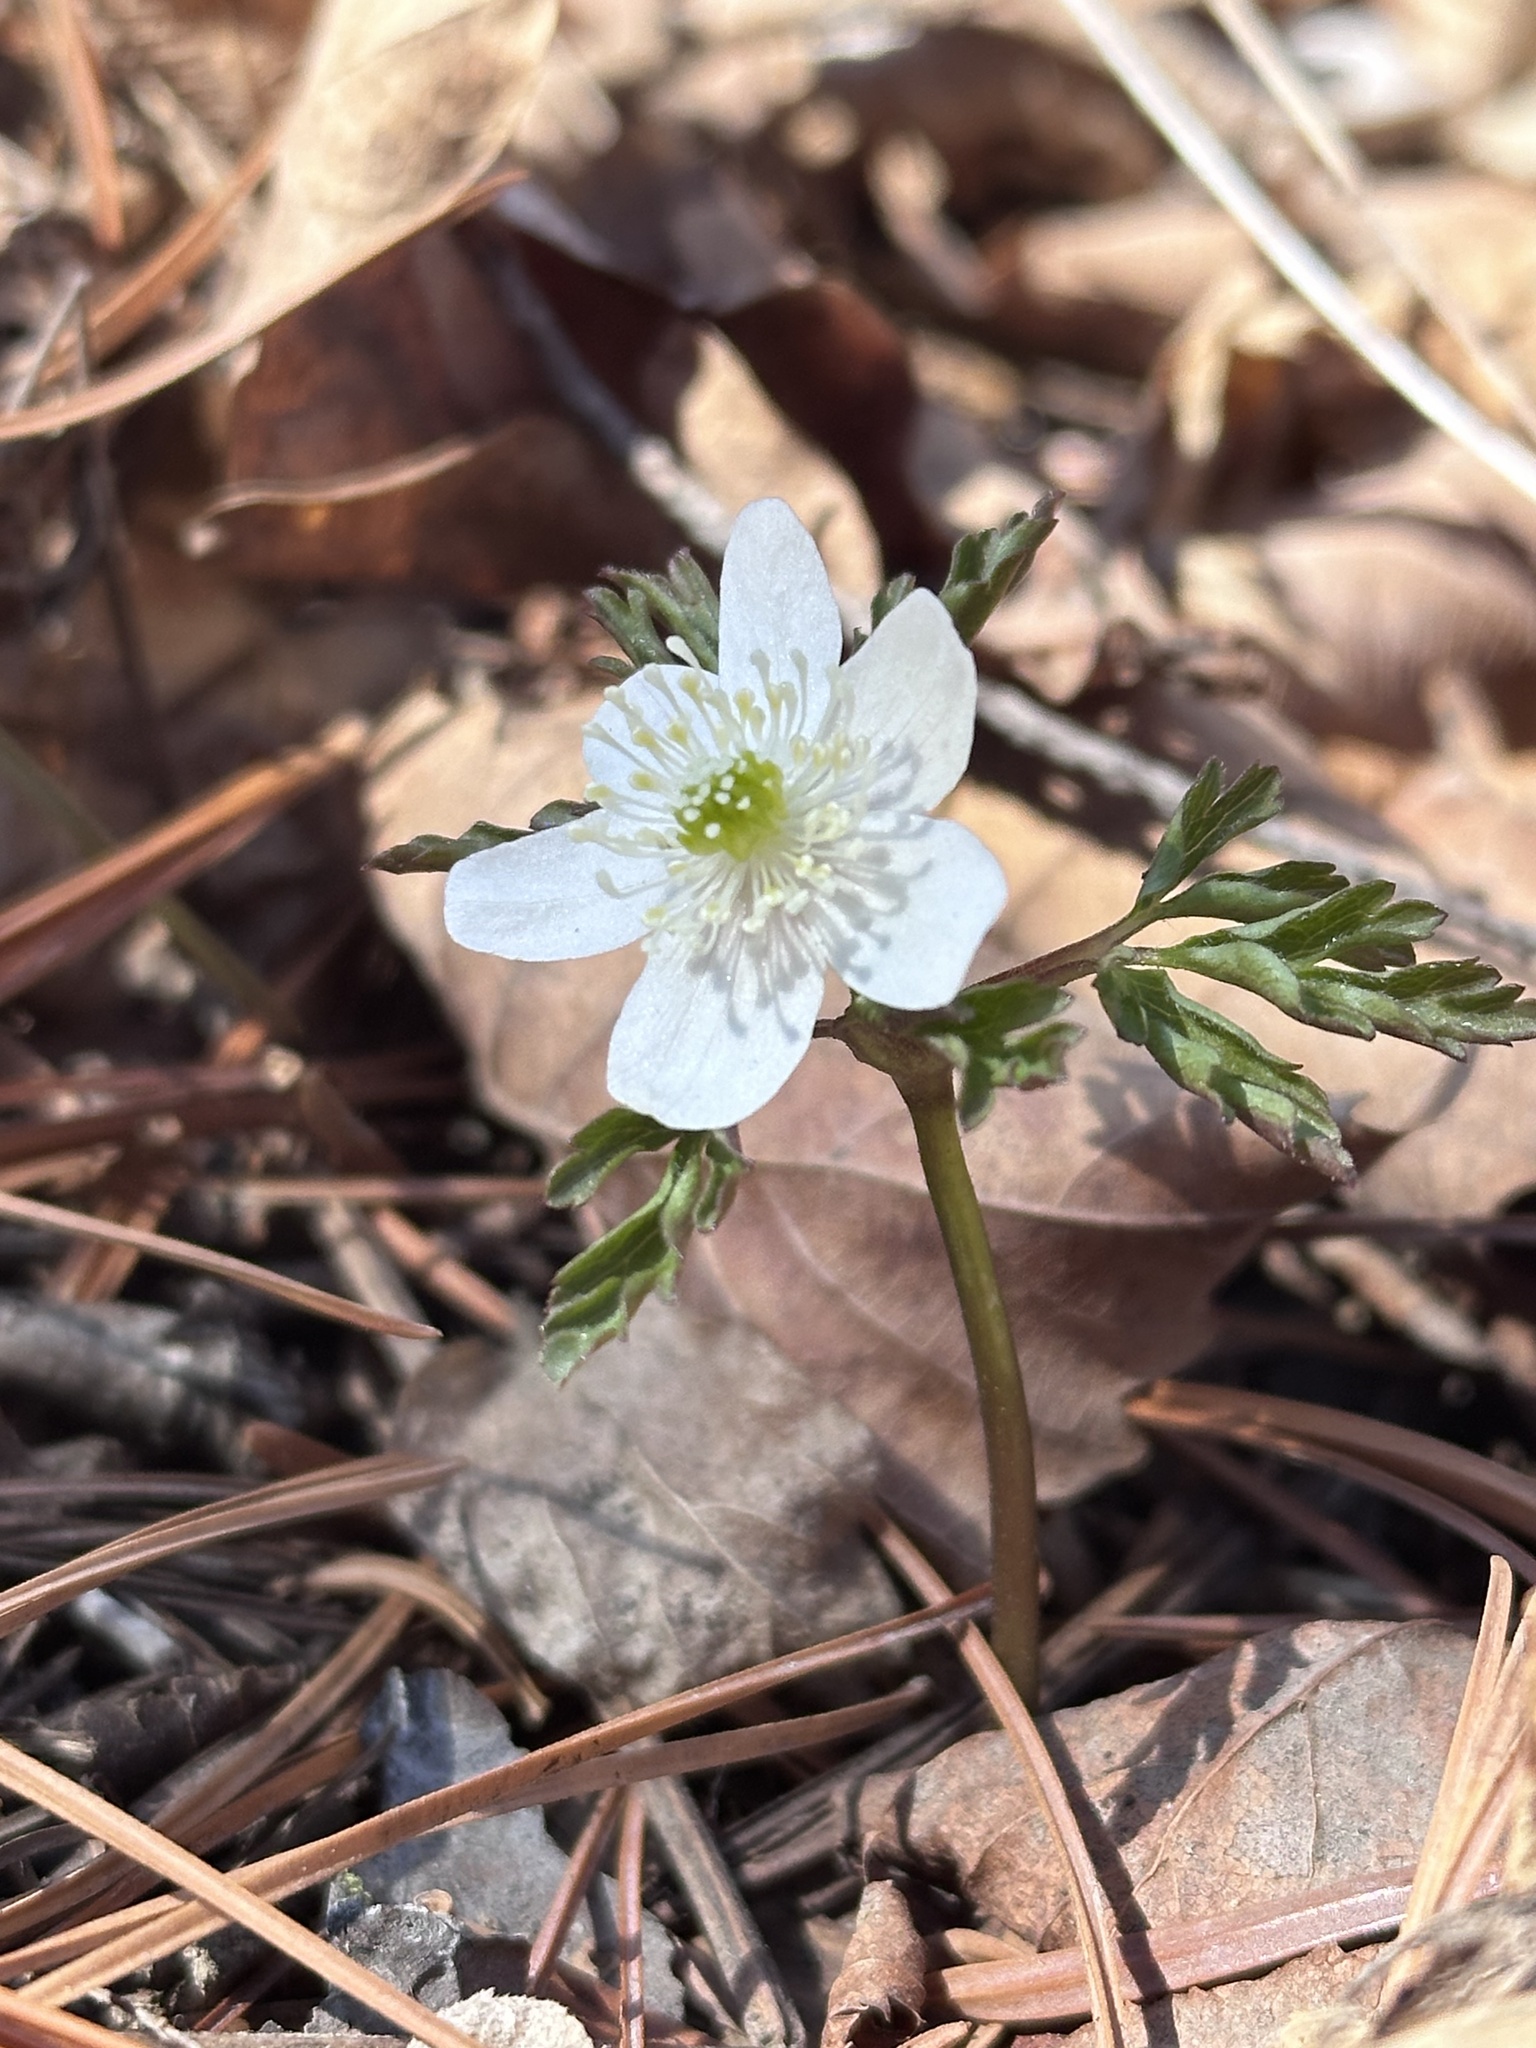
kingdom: Plantae
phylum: Tracheophyta
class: Magnoliopsida
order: Ranunculales
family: Ranunculaceae
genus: Anemone
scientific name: Anemone amurensis
